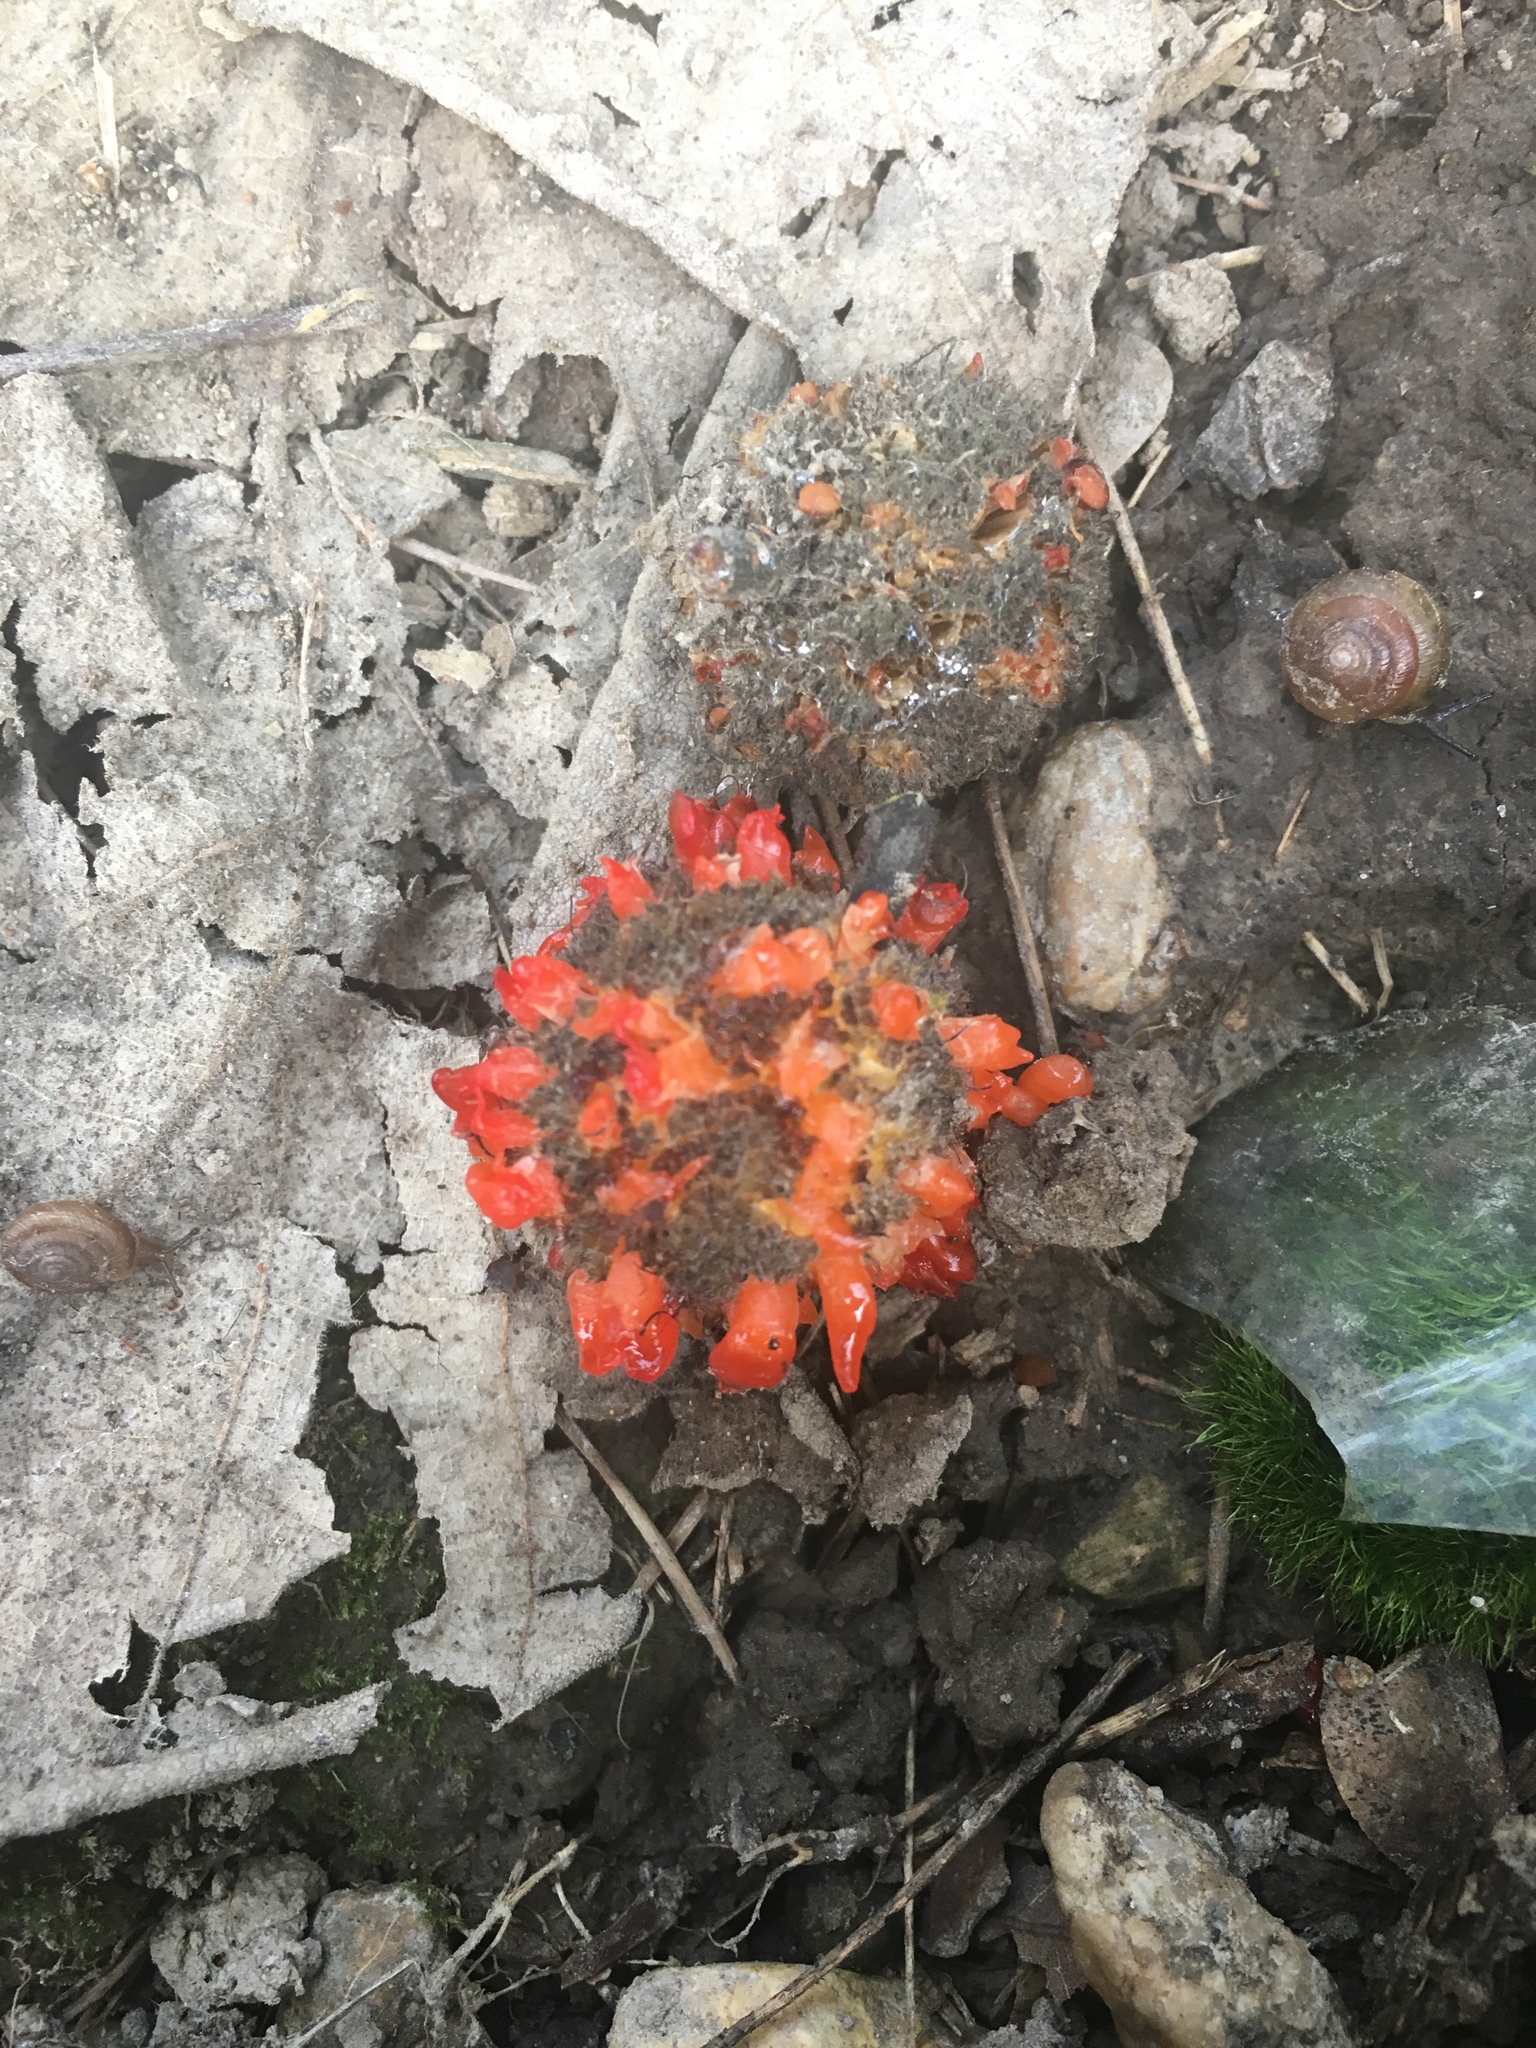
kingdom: Plantae
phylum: Tracheophyta
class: Magnoliopsida
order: Rosales
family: Moraceae
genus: Broussonetia
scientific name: Broussonetia papyrifera
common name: Paper mulberry
